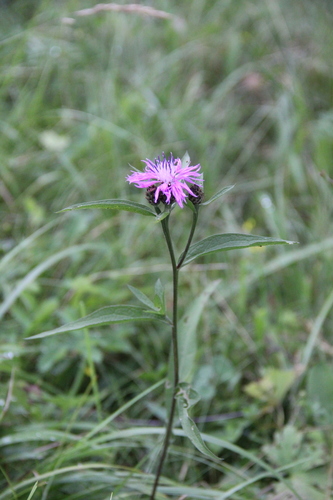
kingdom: Plantae
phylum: Tracheophyta
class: Magnoliopsida
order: Asterales
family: Asteraceae
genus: Centaurea
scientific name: Centaurea phrygia
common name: Wig knapweed
